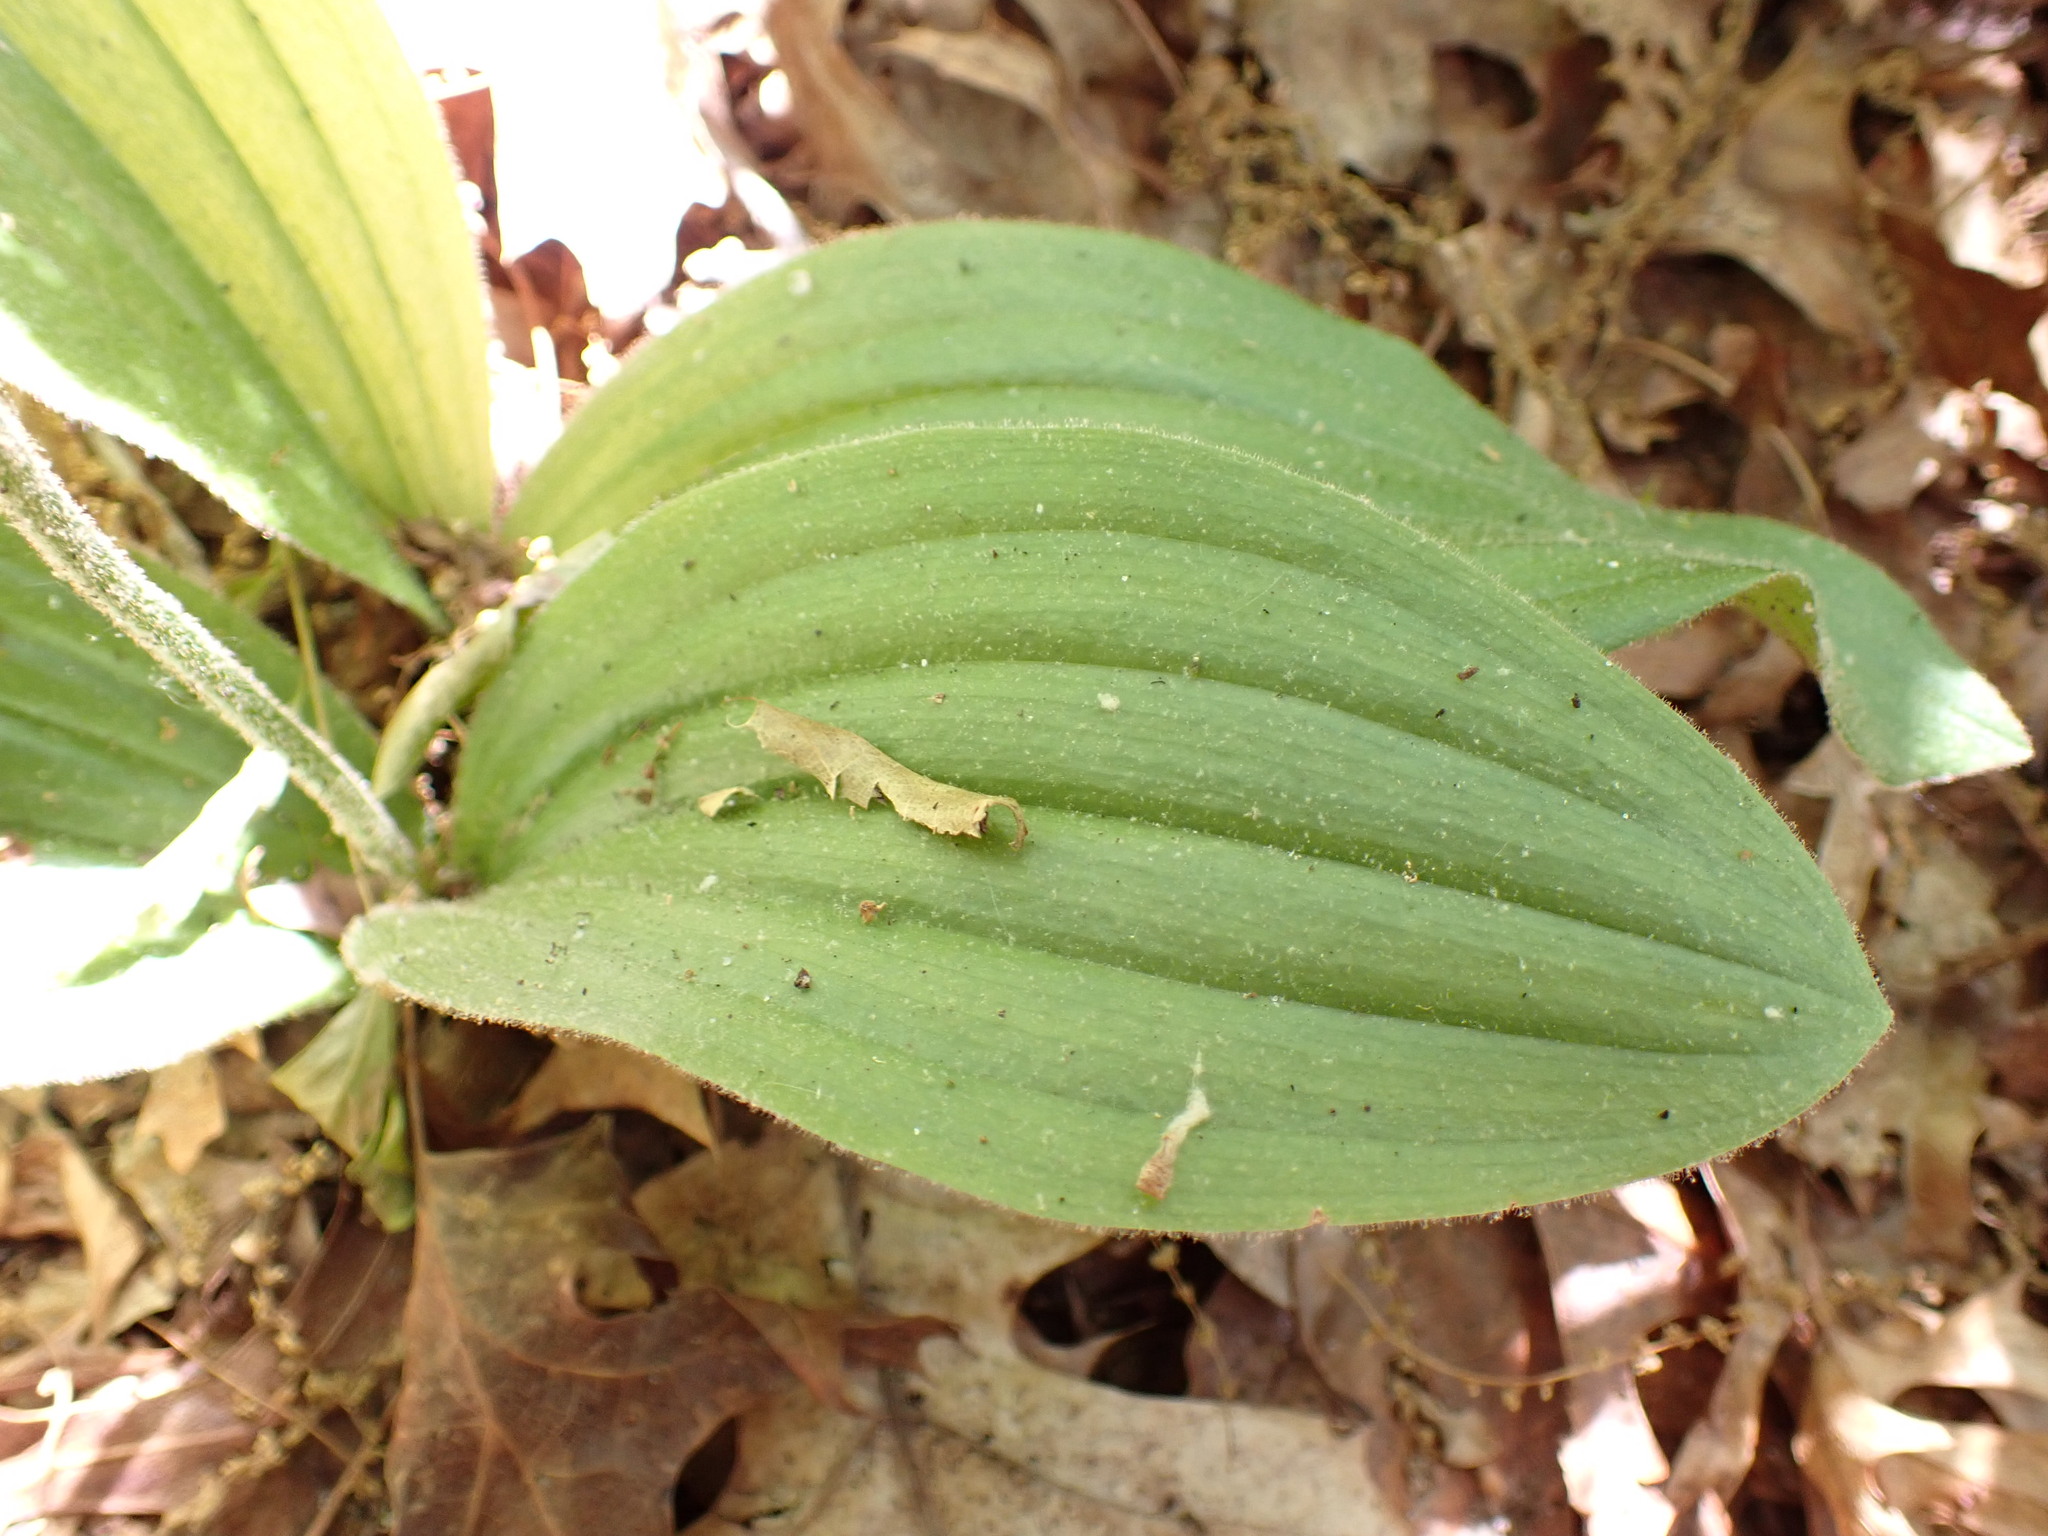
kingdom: Plantae
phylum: Tracheophyta
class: Liliopsida
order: Asparagales
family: Orchidaceae
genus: Cypripedium
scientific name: Cypripedium acaule
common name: Pink lady's-slipper
